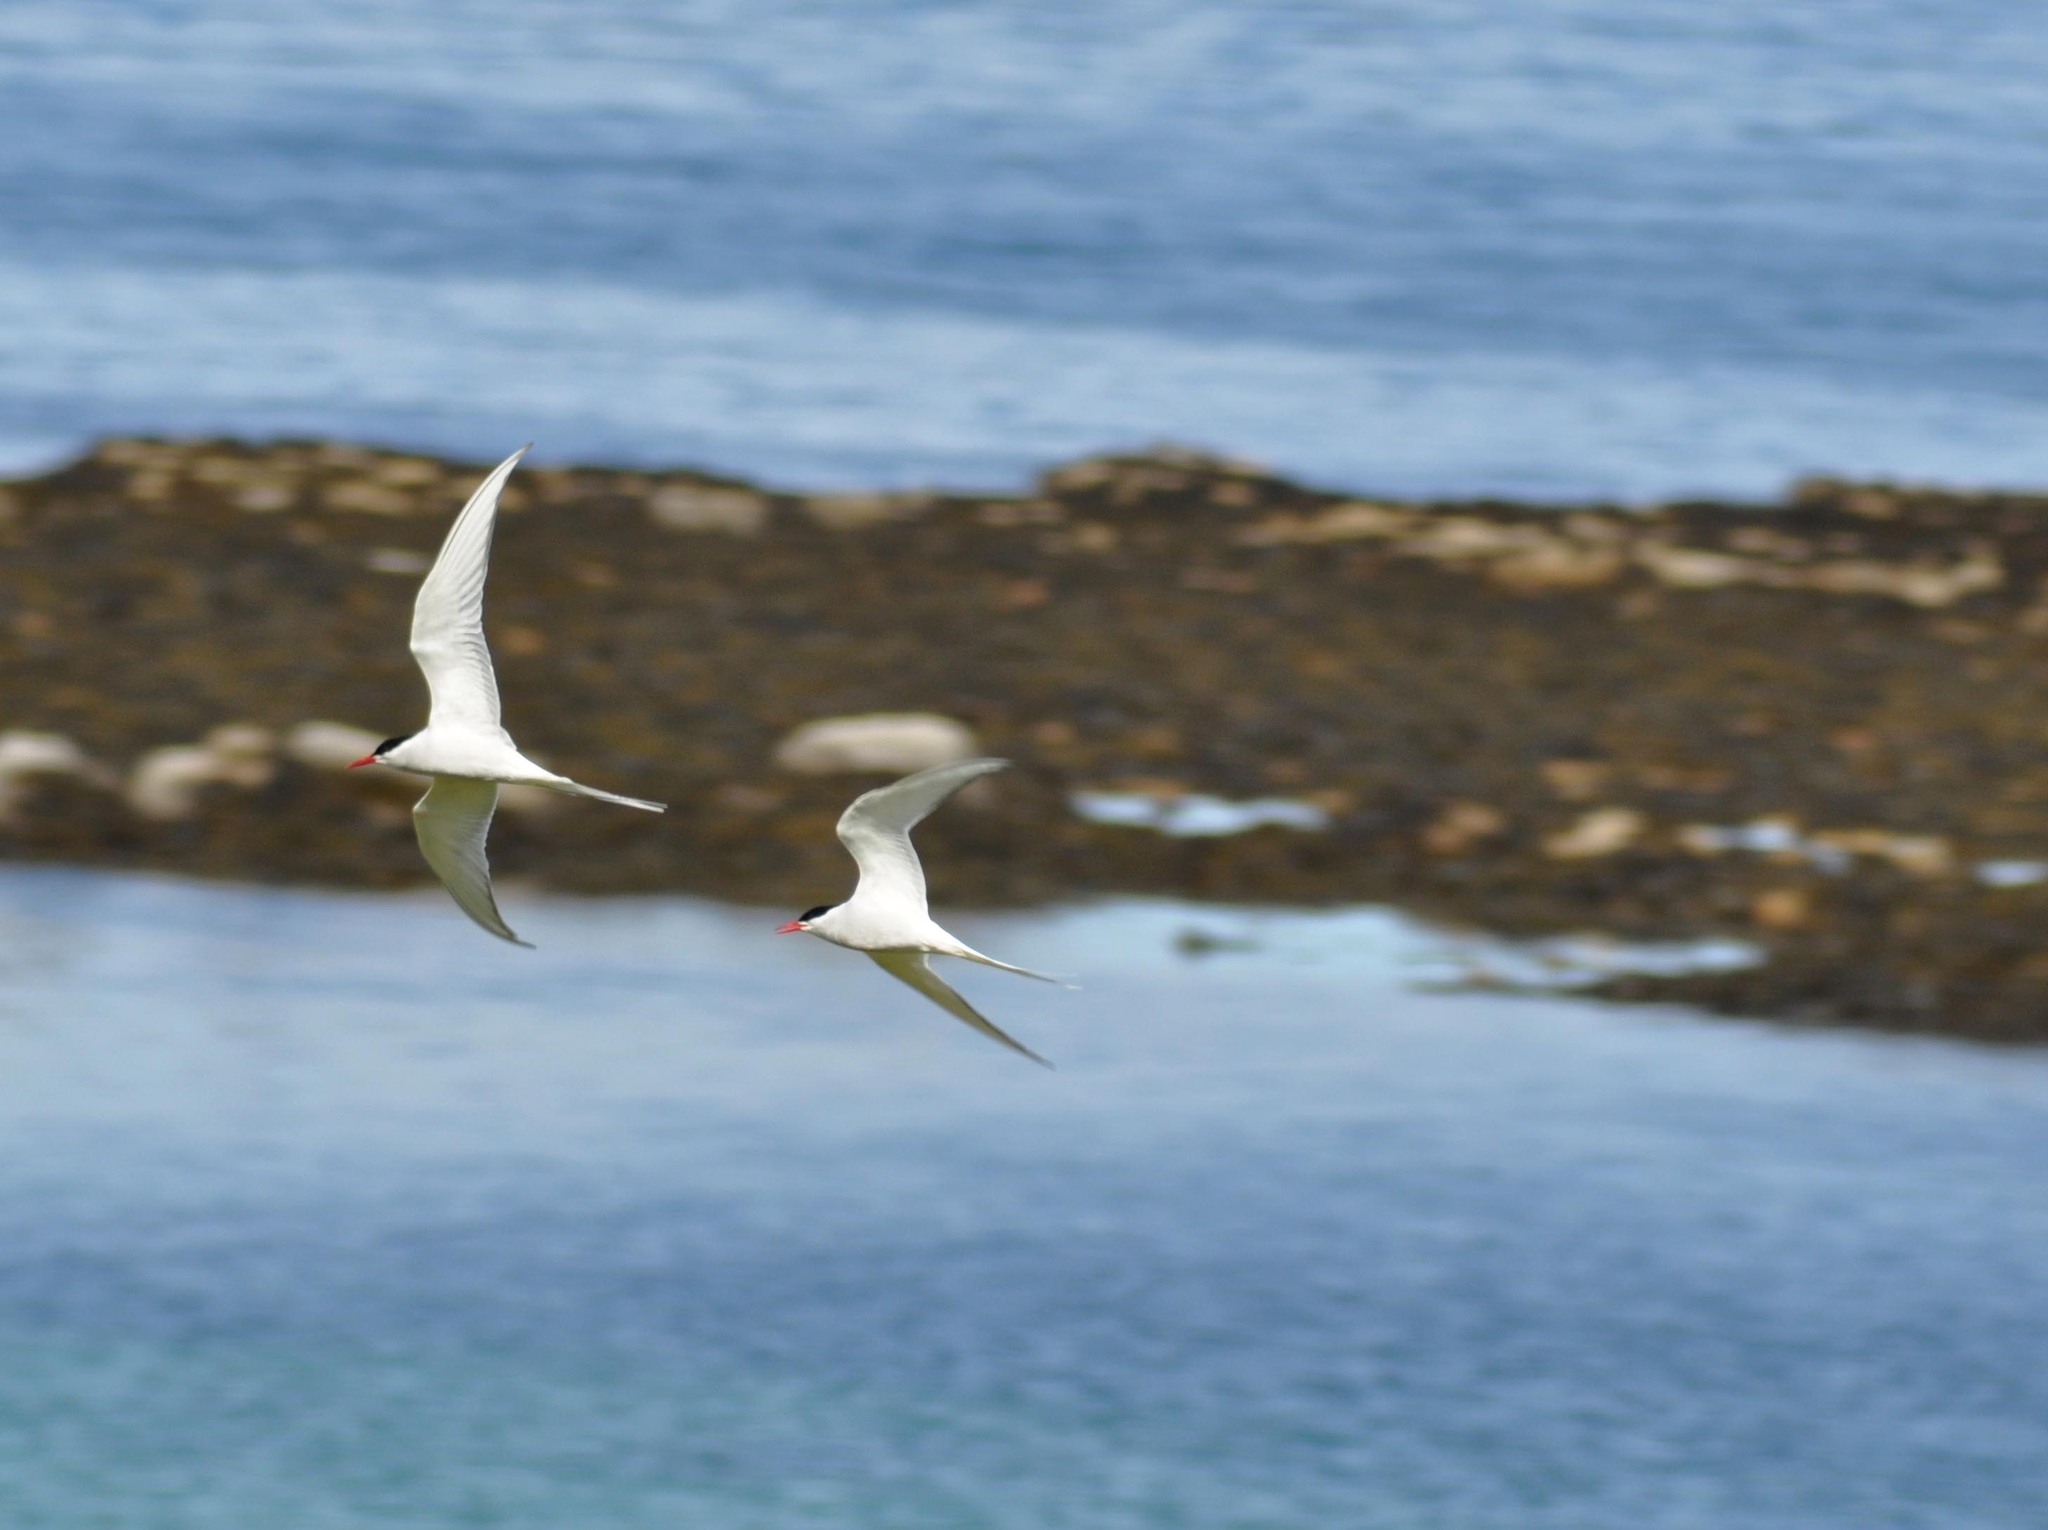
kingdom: Animalia
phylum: Chordata
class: Aves
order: Charadriiformes
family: Laridae
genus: Sterna
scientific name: Sterna paradisaea
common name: Arctic tern
